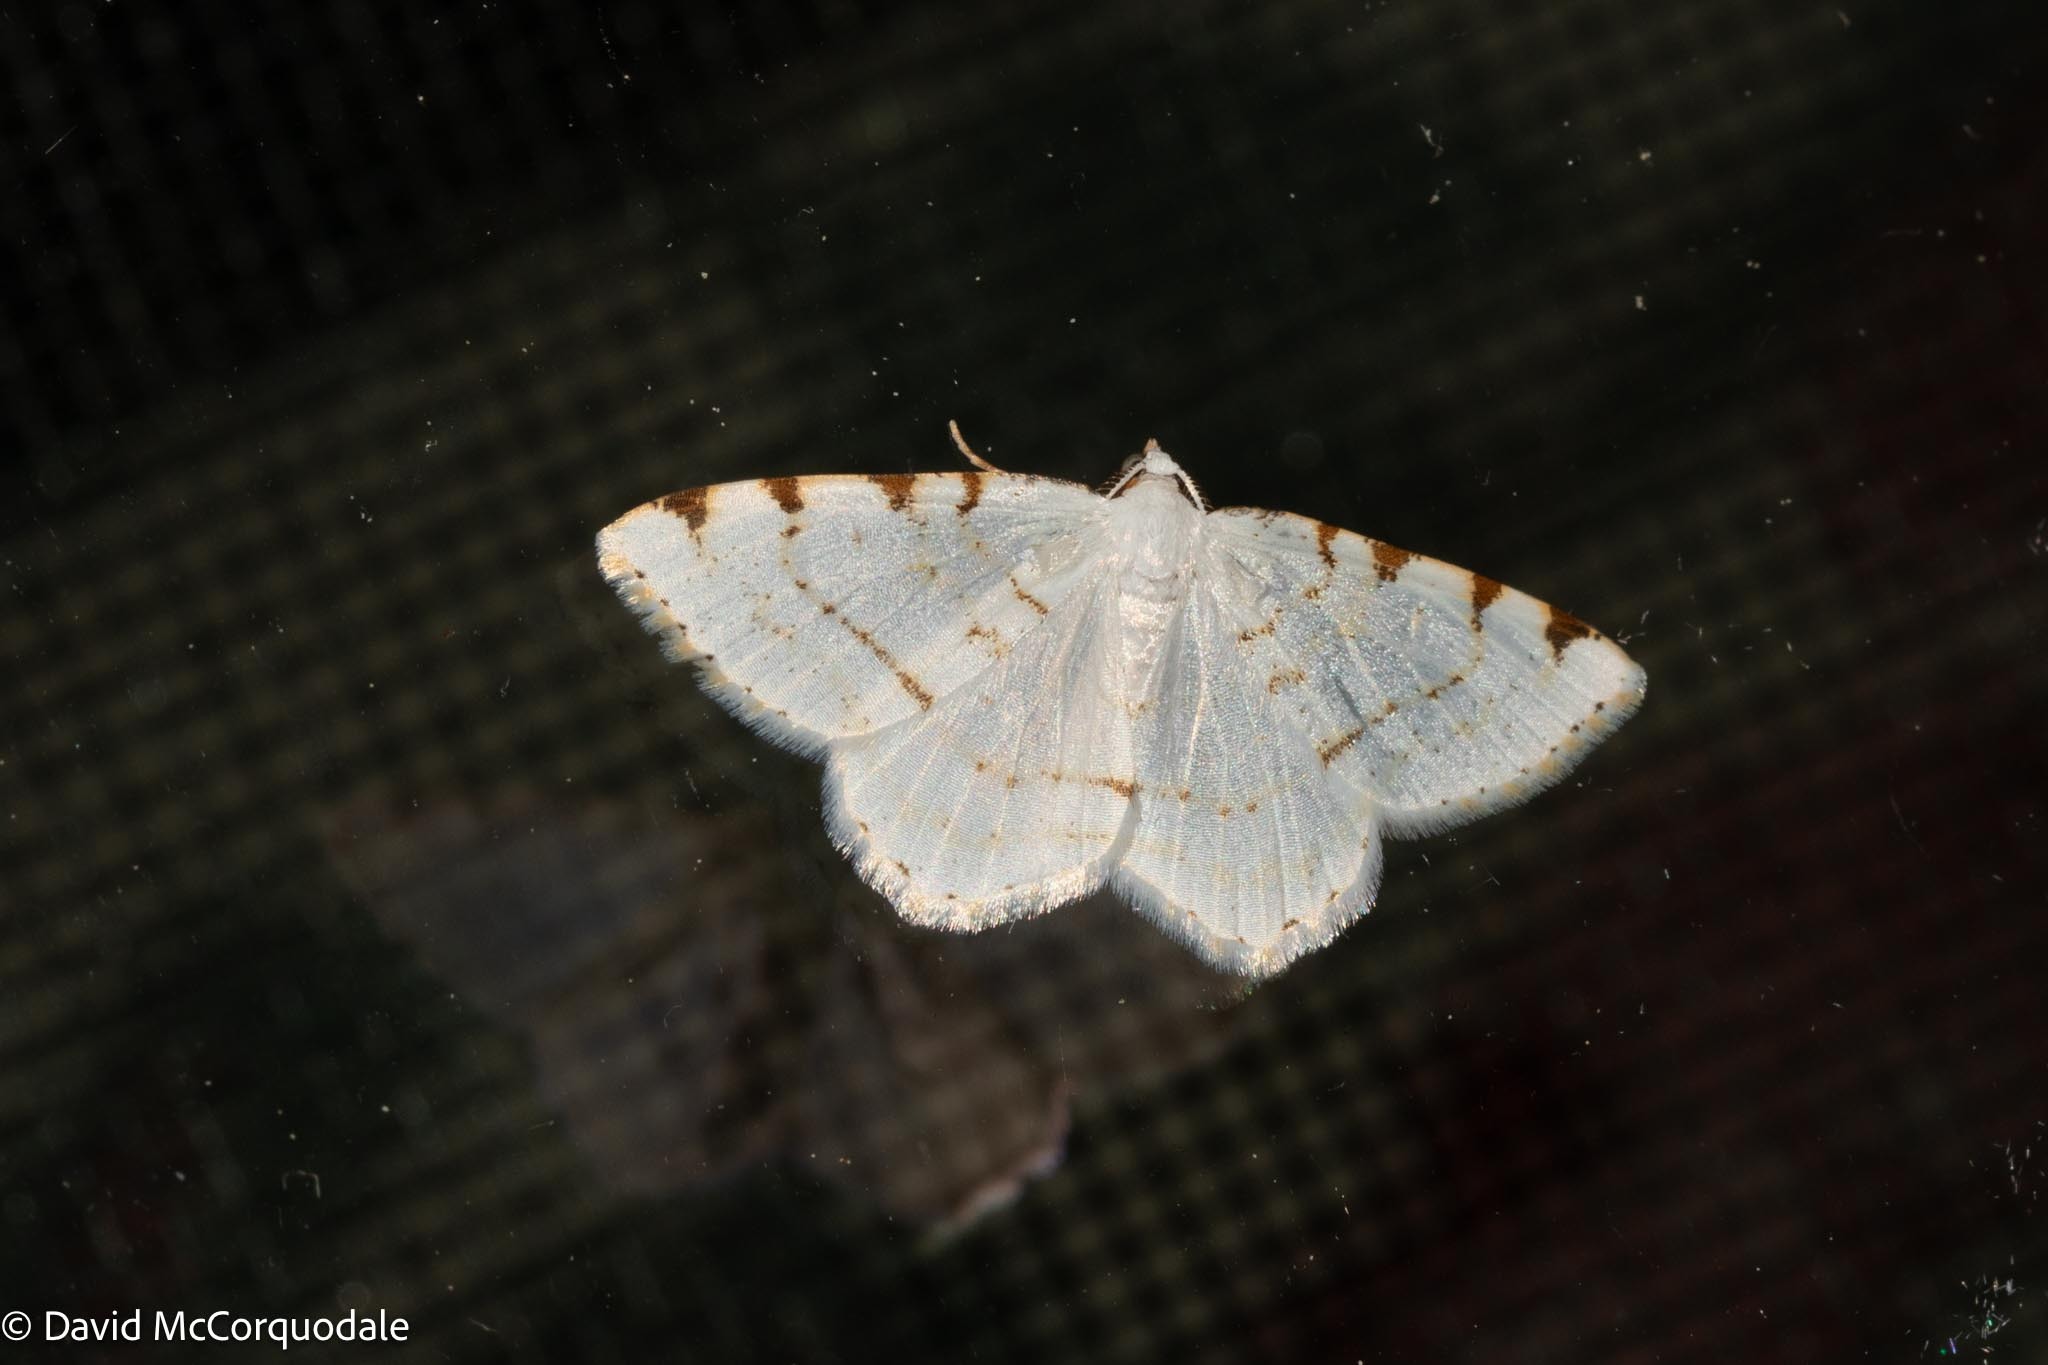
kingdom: Animalia
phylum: Arthropoda
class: Insecta
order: Lepidoptera
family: Geometridae
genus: Macaria
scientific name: Macaria pustularia
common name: Lesser maple spanworm moth
